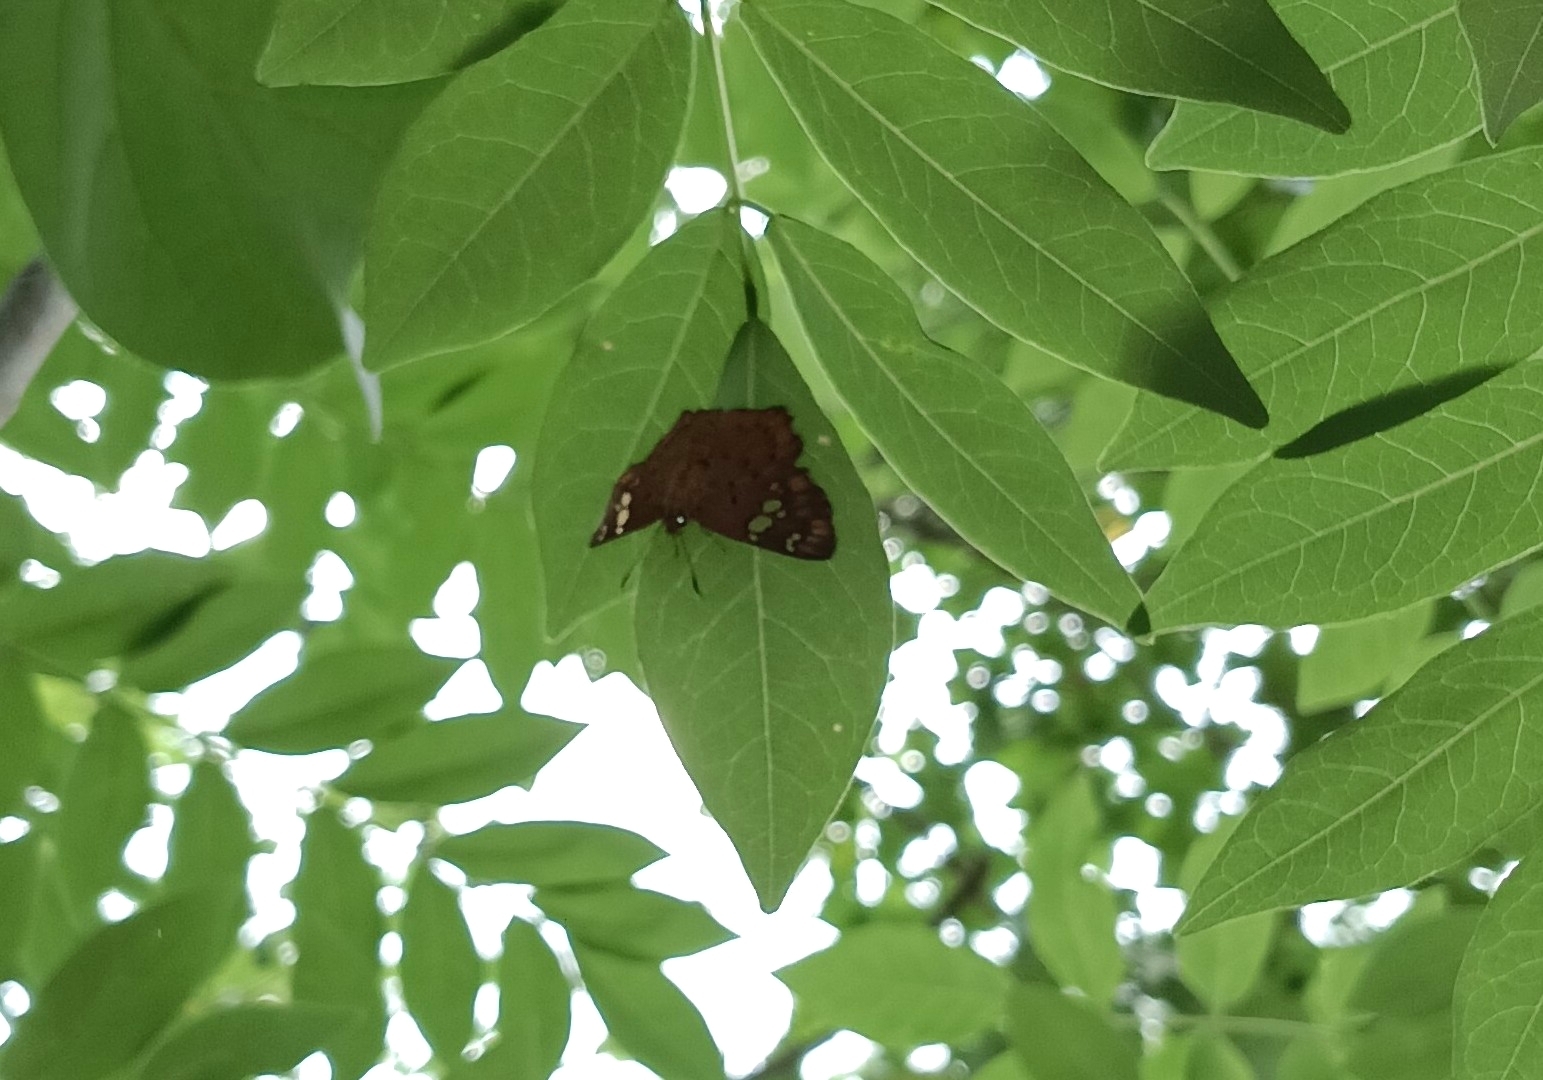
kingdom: Animalia
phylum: Arthropoda
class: Insecta
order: Lepidoptera
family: Hesperiidae
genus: Coladenia
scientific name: Coladenia
